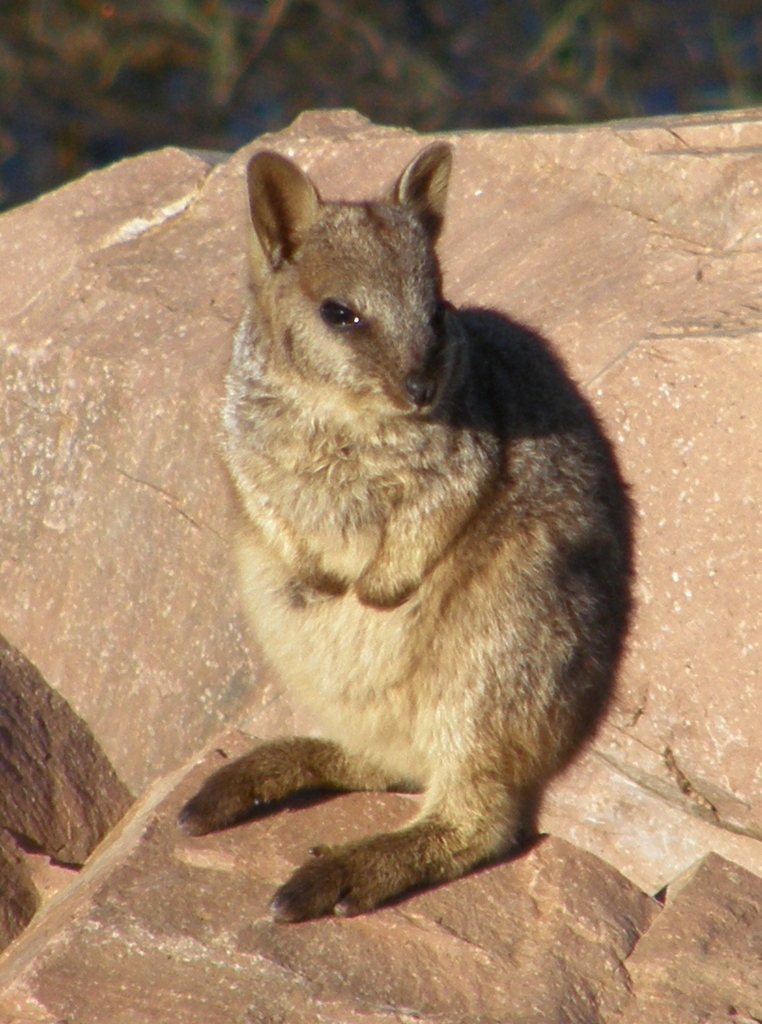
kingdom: Animalia
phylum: Chordata
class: Mammalia
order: Diprotodontia
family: Macropodidae
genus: Petrogale
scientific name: Petrogale assimilis
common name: Allied rock wallaby
